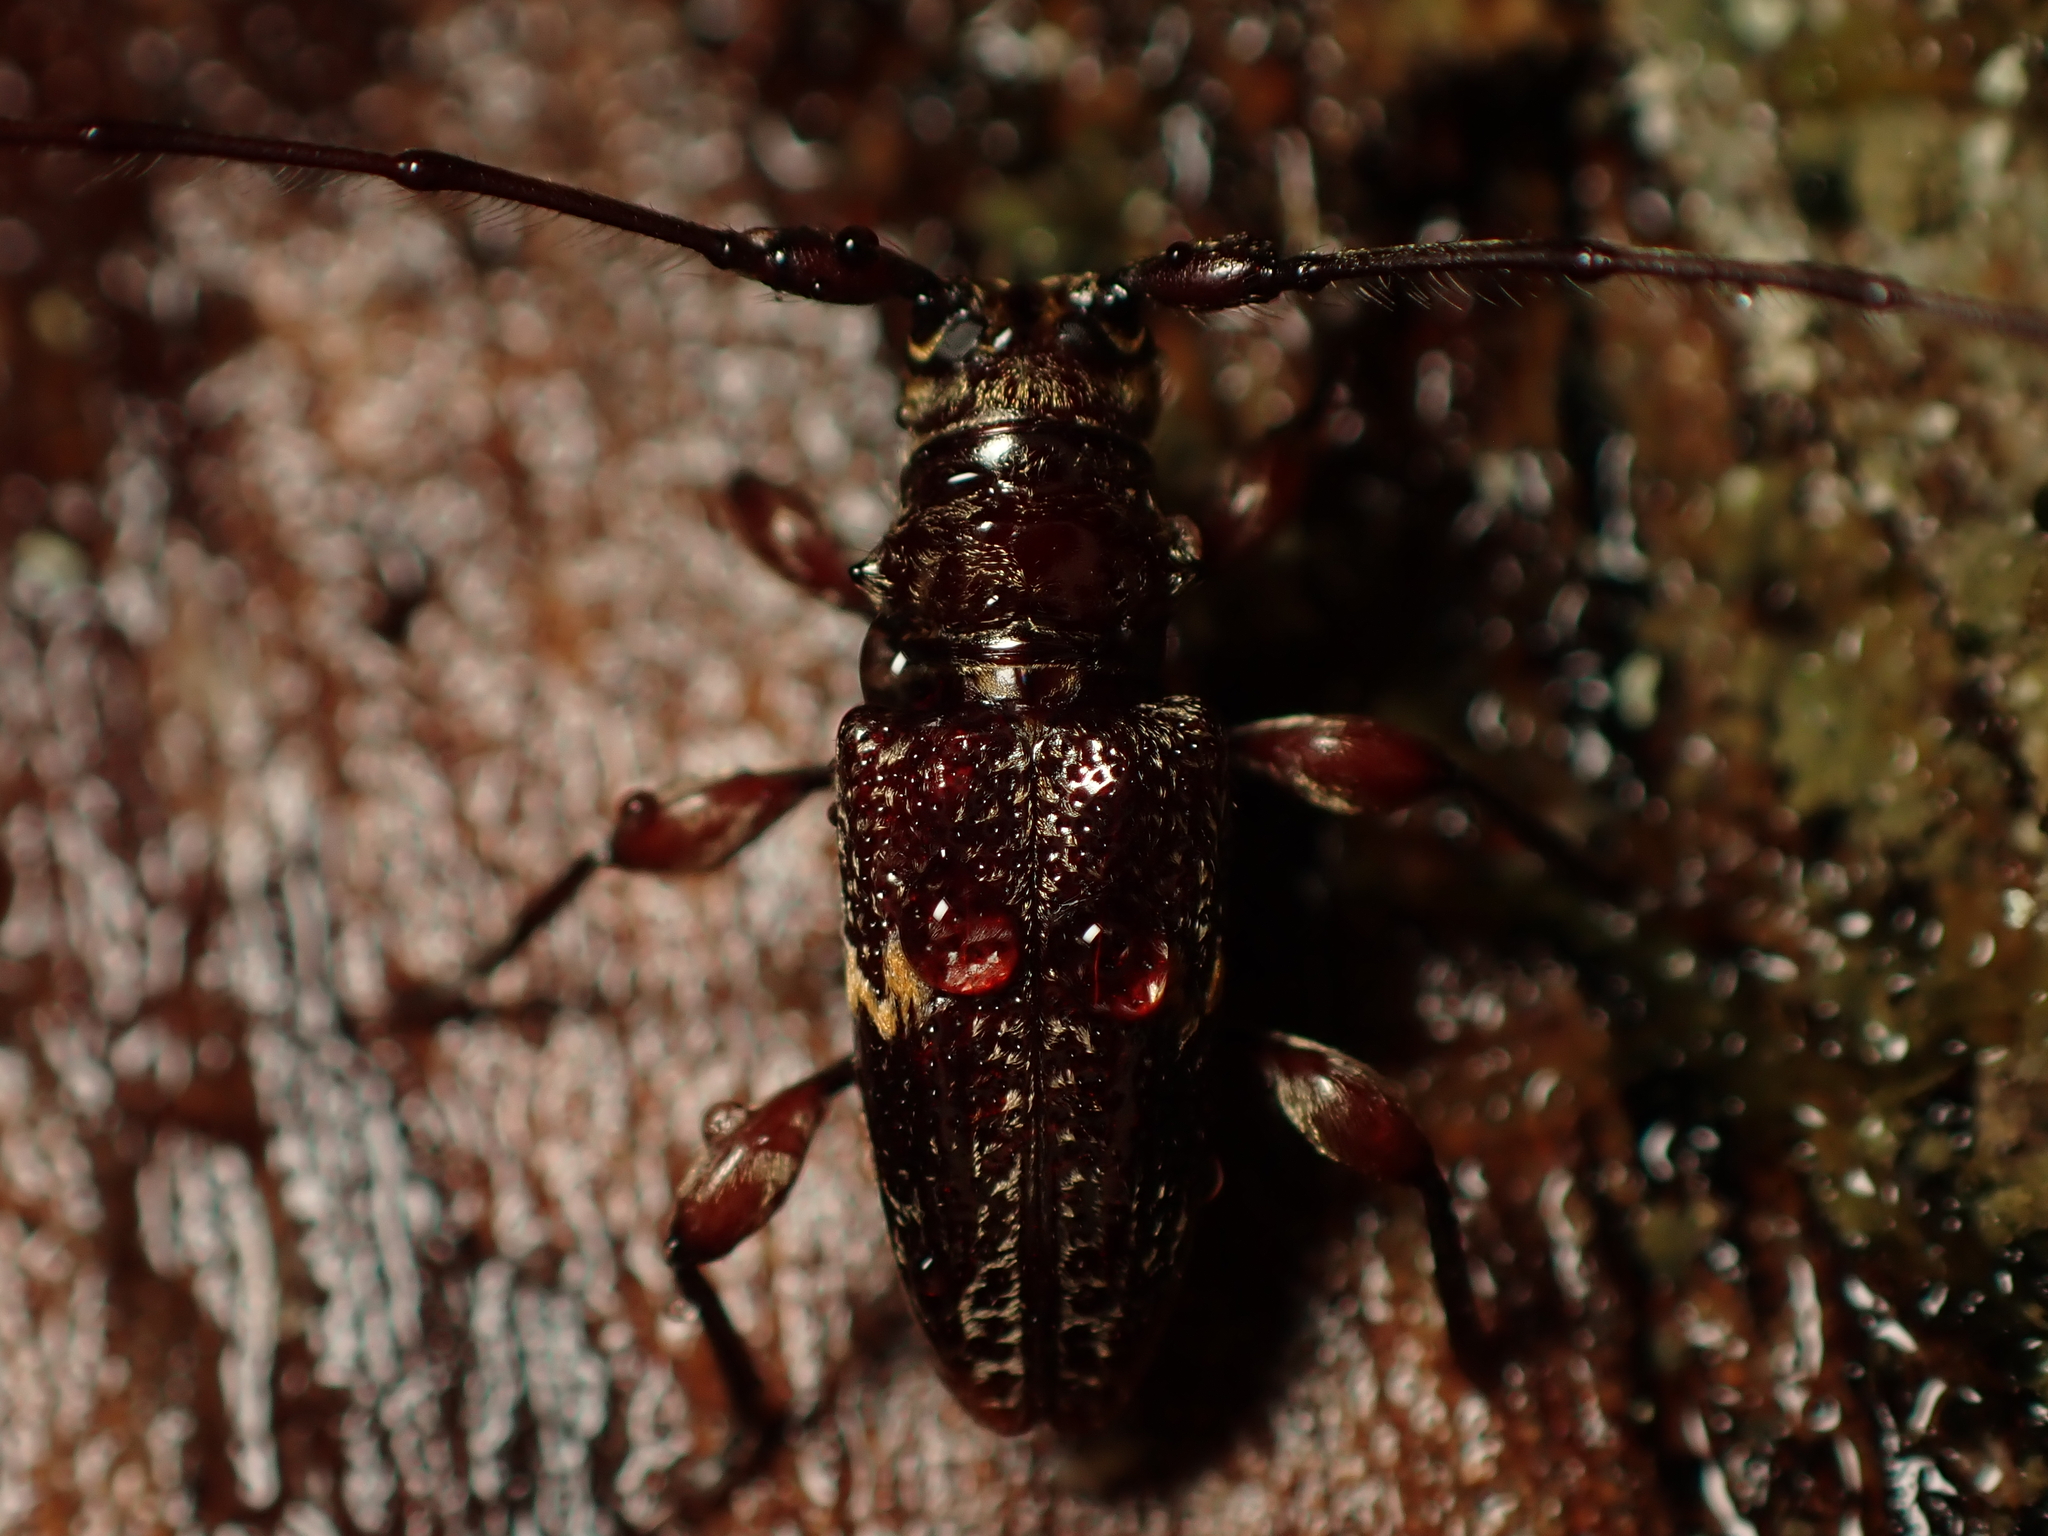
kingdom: Animalia
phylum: Arthropoda
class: Insecta
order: Coleoptera
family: Cerambycidae
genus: Hybolasius
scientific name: Hybolasius
